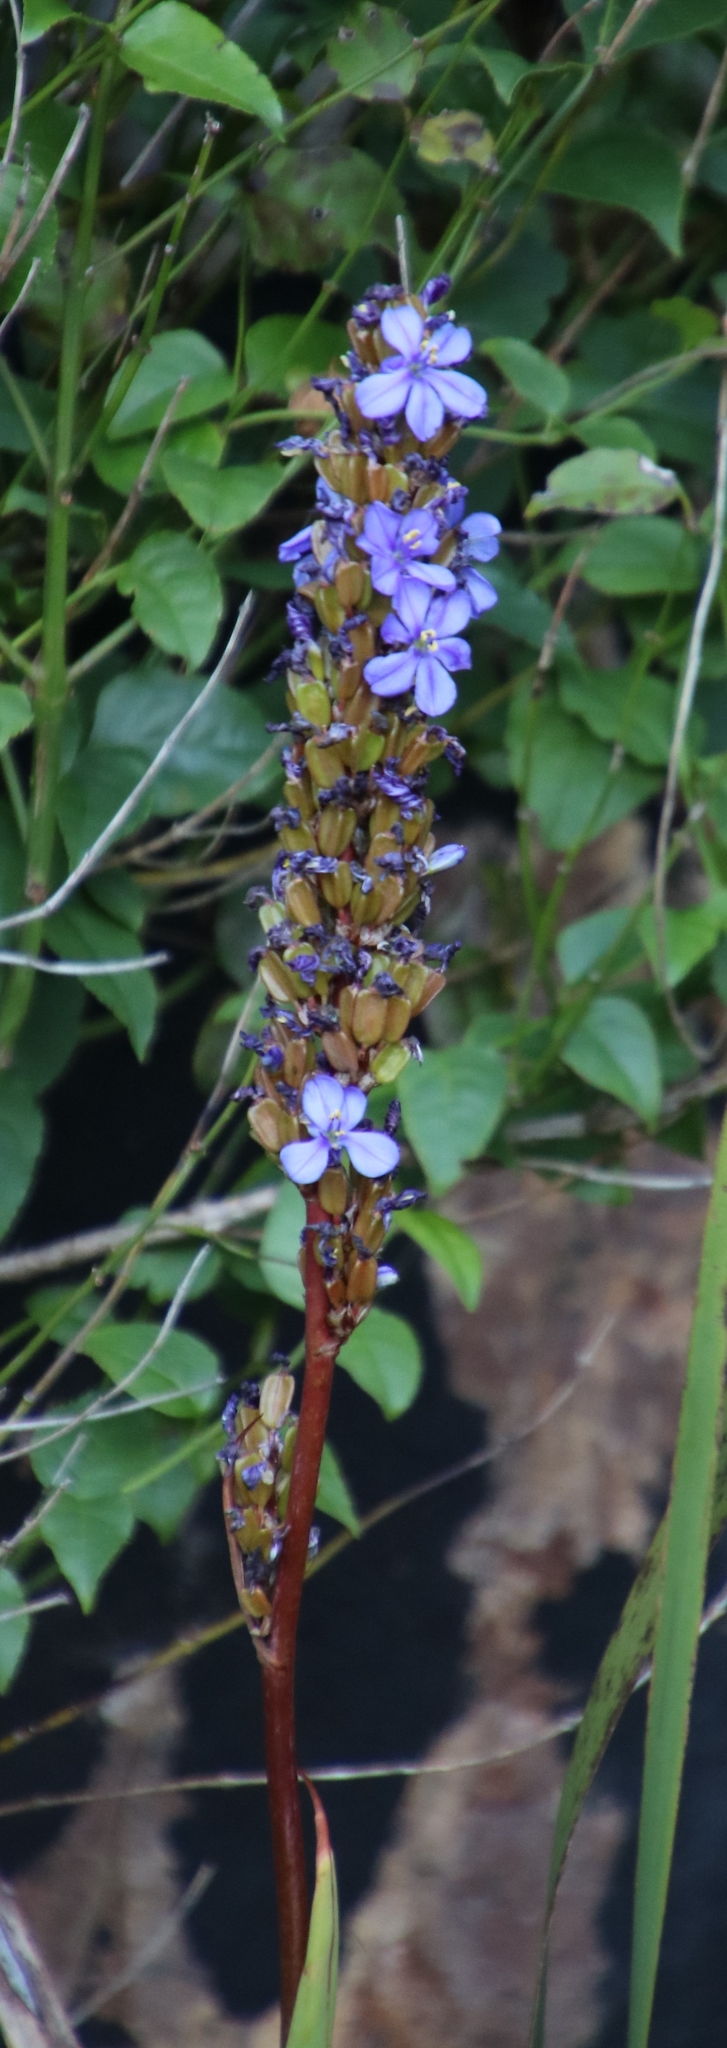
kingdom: Plantae
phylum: Tracheophyta
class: Liliopsida
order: Asparagales
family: Iridaceae
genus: Aristea
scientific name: Aristea capitata
